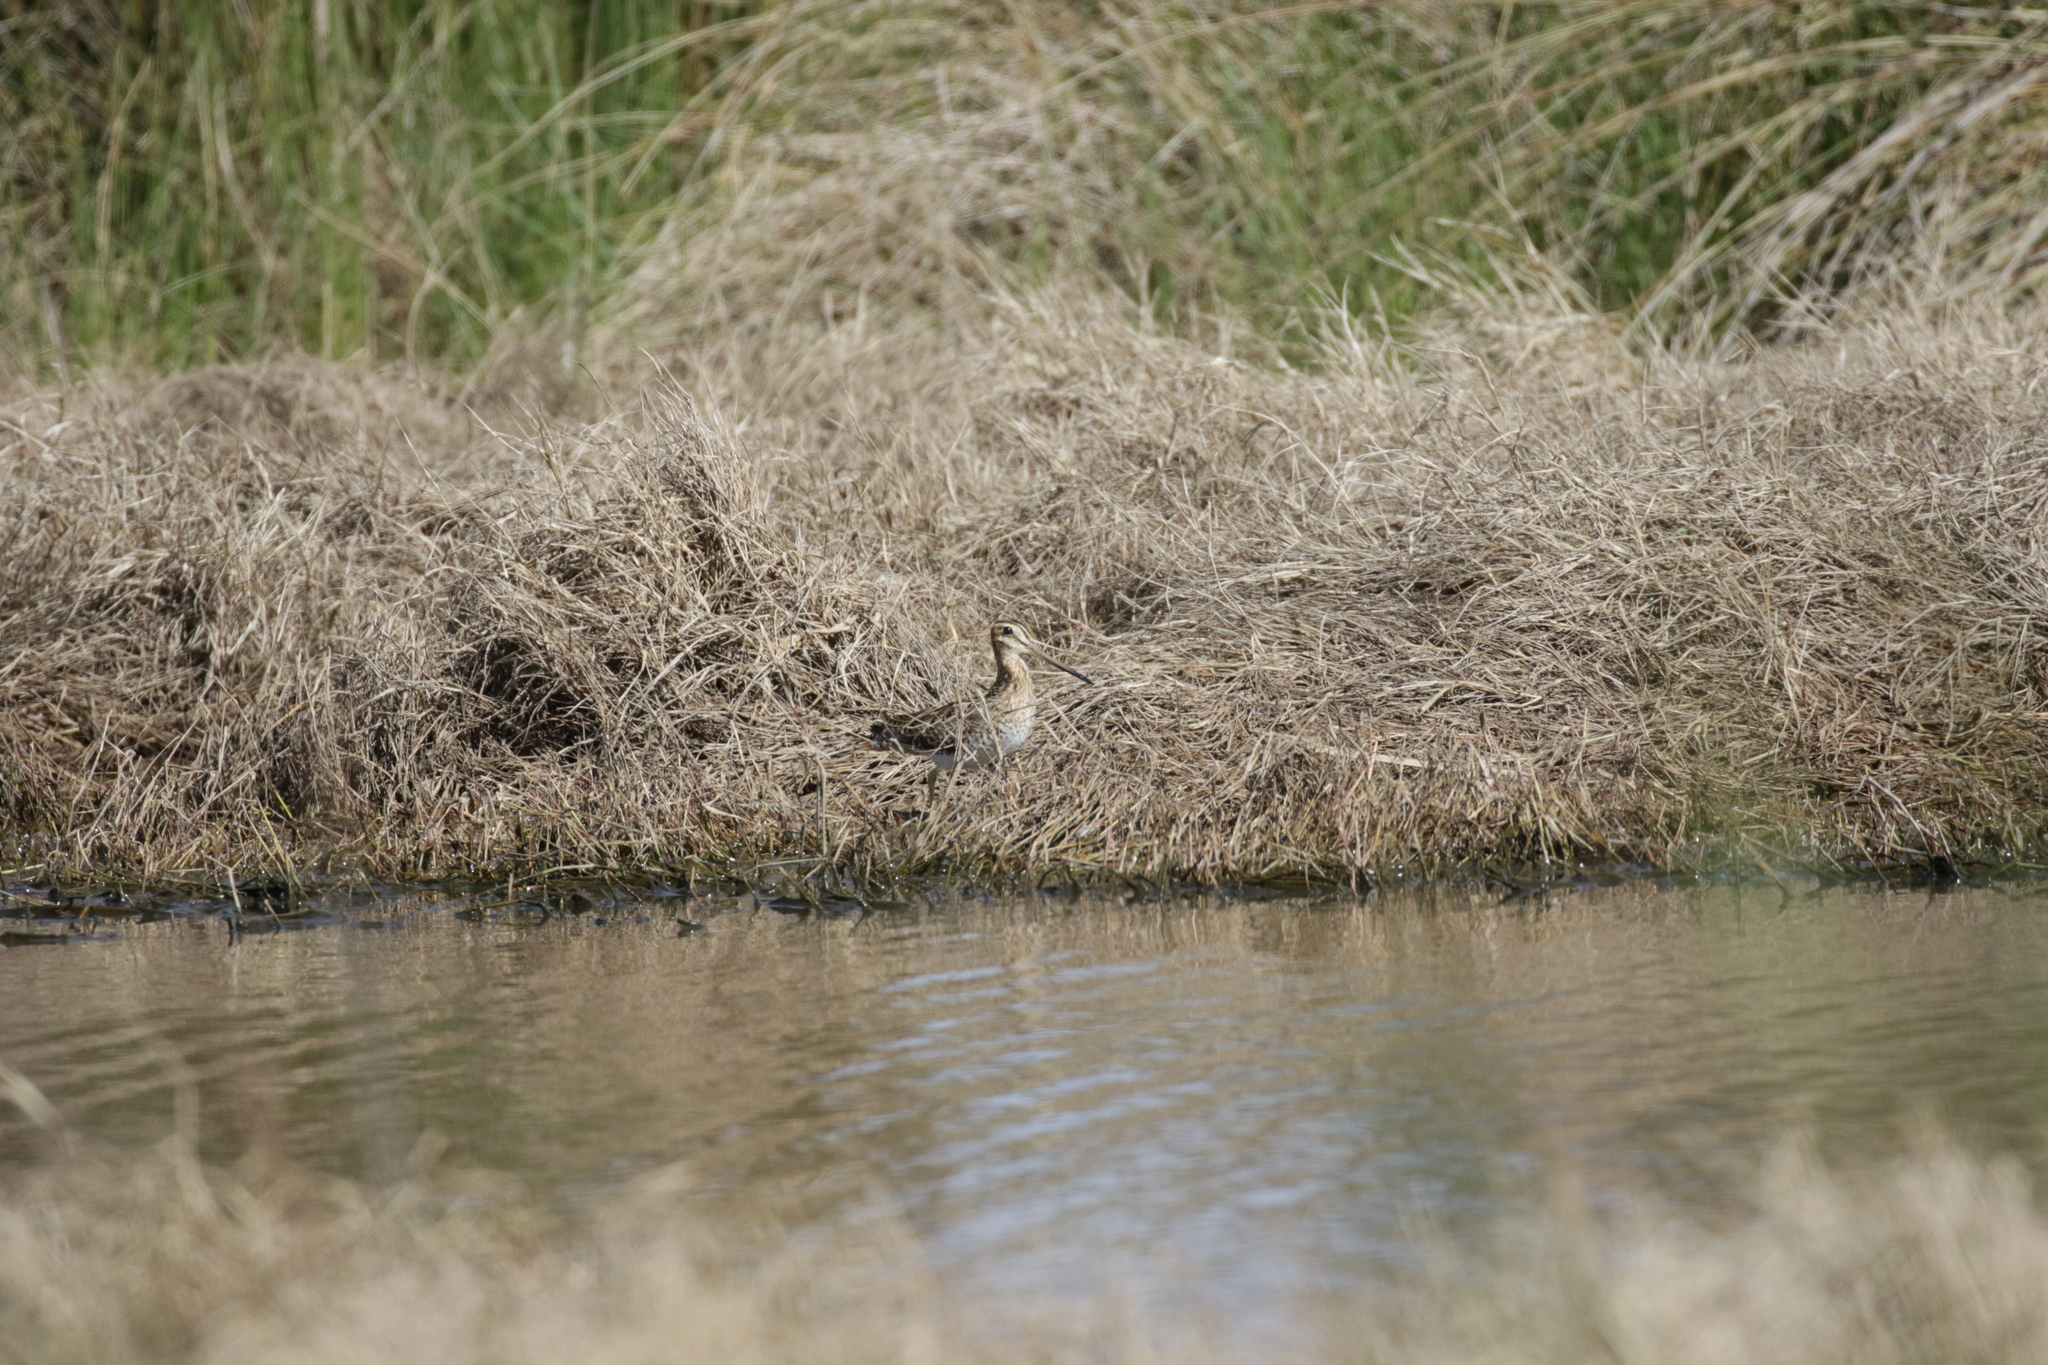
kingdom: Animalia
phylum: Chordata
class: Aves
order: Charadriiformes
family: Scolopacidae
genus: Gallinago
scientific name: Gallinago hardwickii
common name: Latham's snipe
